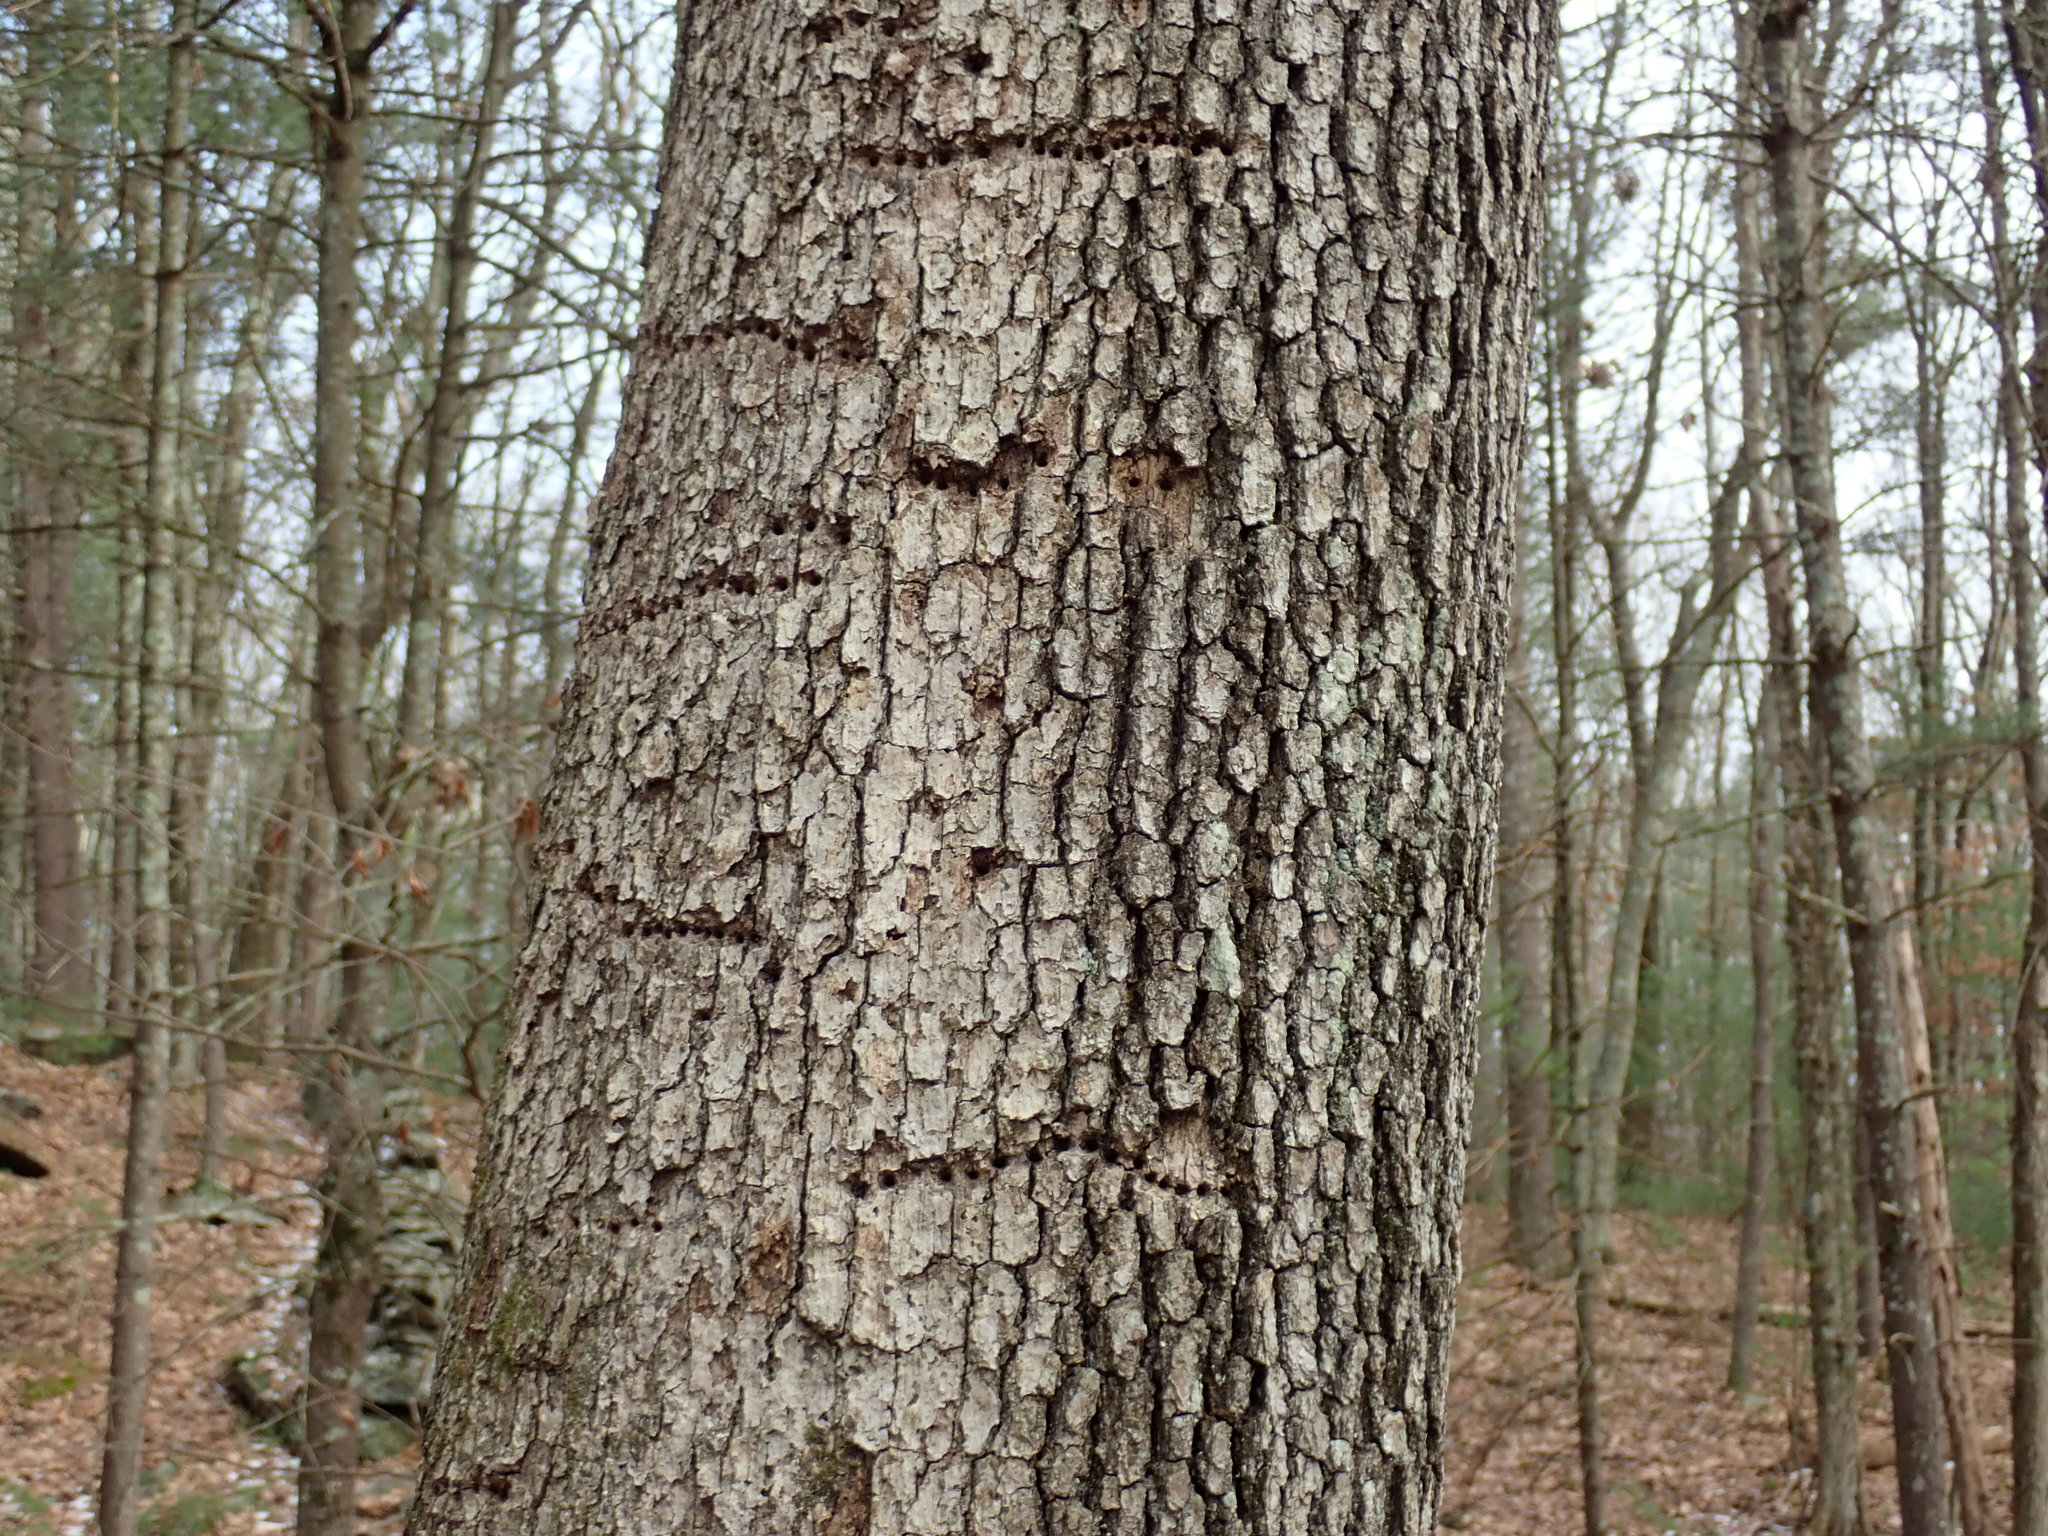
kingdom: Animalia
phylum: Chordata
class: Aves
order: Piciformes
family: Picidae
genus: Sphyrapicus
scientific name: Sphyrapicus varius
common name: Yellow-bellied sapsucker
